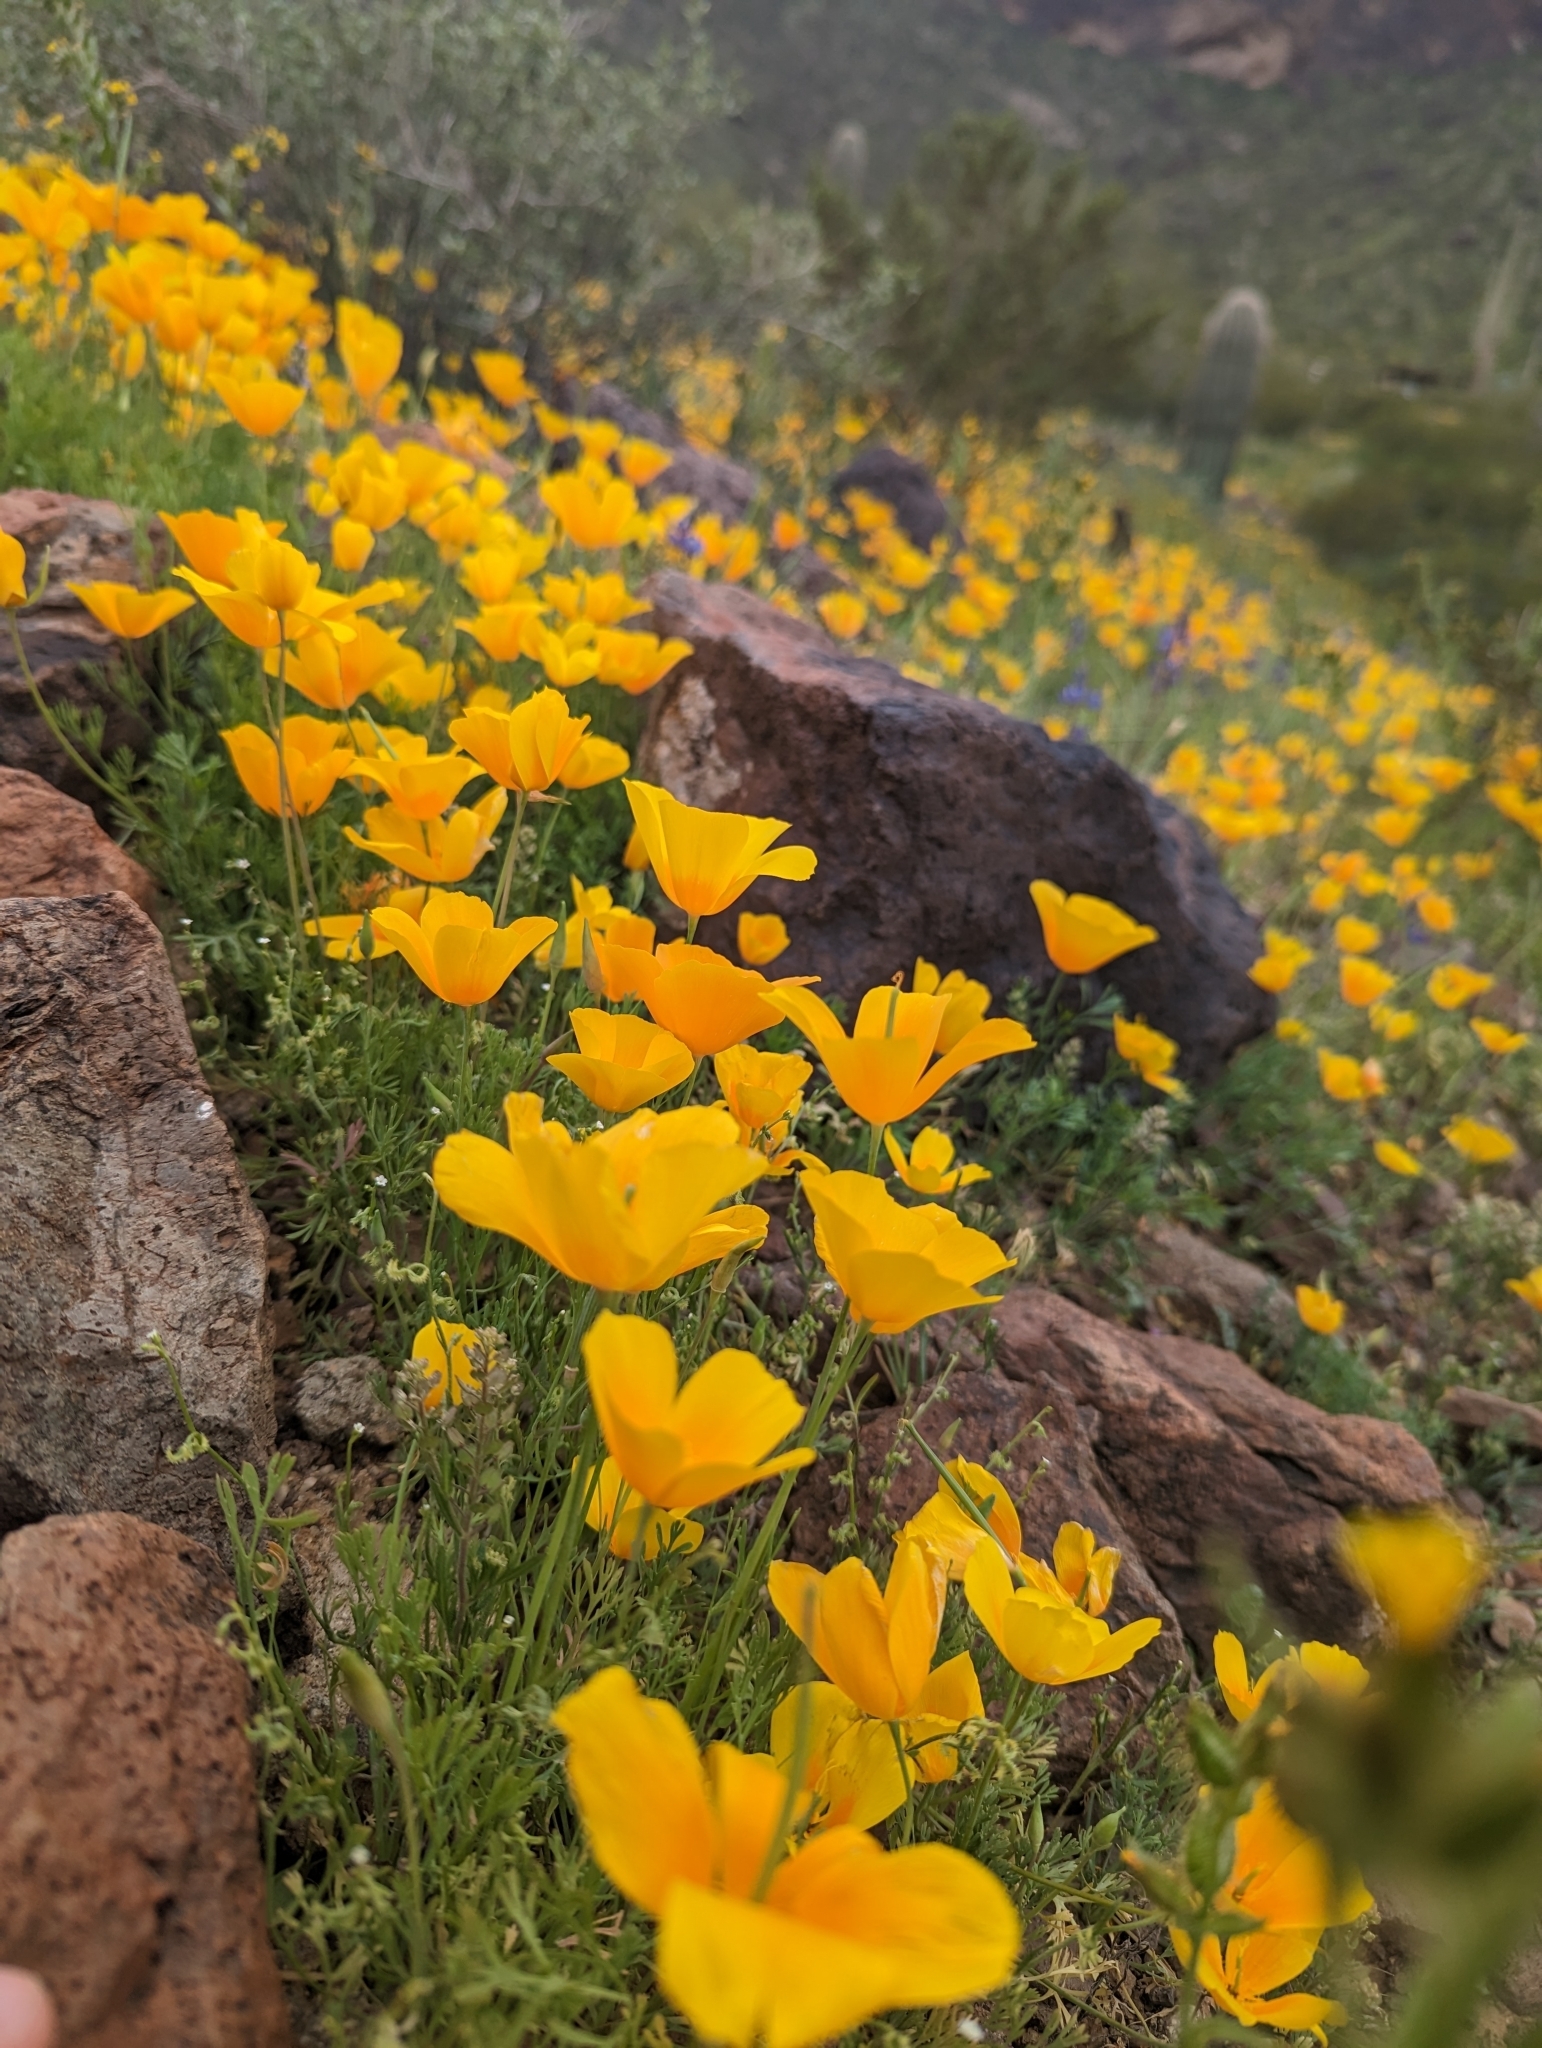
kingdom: Plantae
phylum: Tracheophyta
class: Magnoliopsida
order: Ranunculales
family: Papaveraceae
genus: Eschscholzia
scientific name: Eschscholzia californica
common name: California poppy
